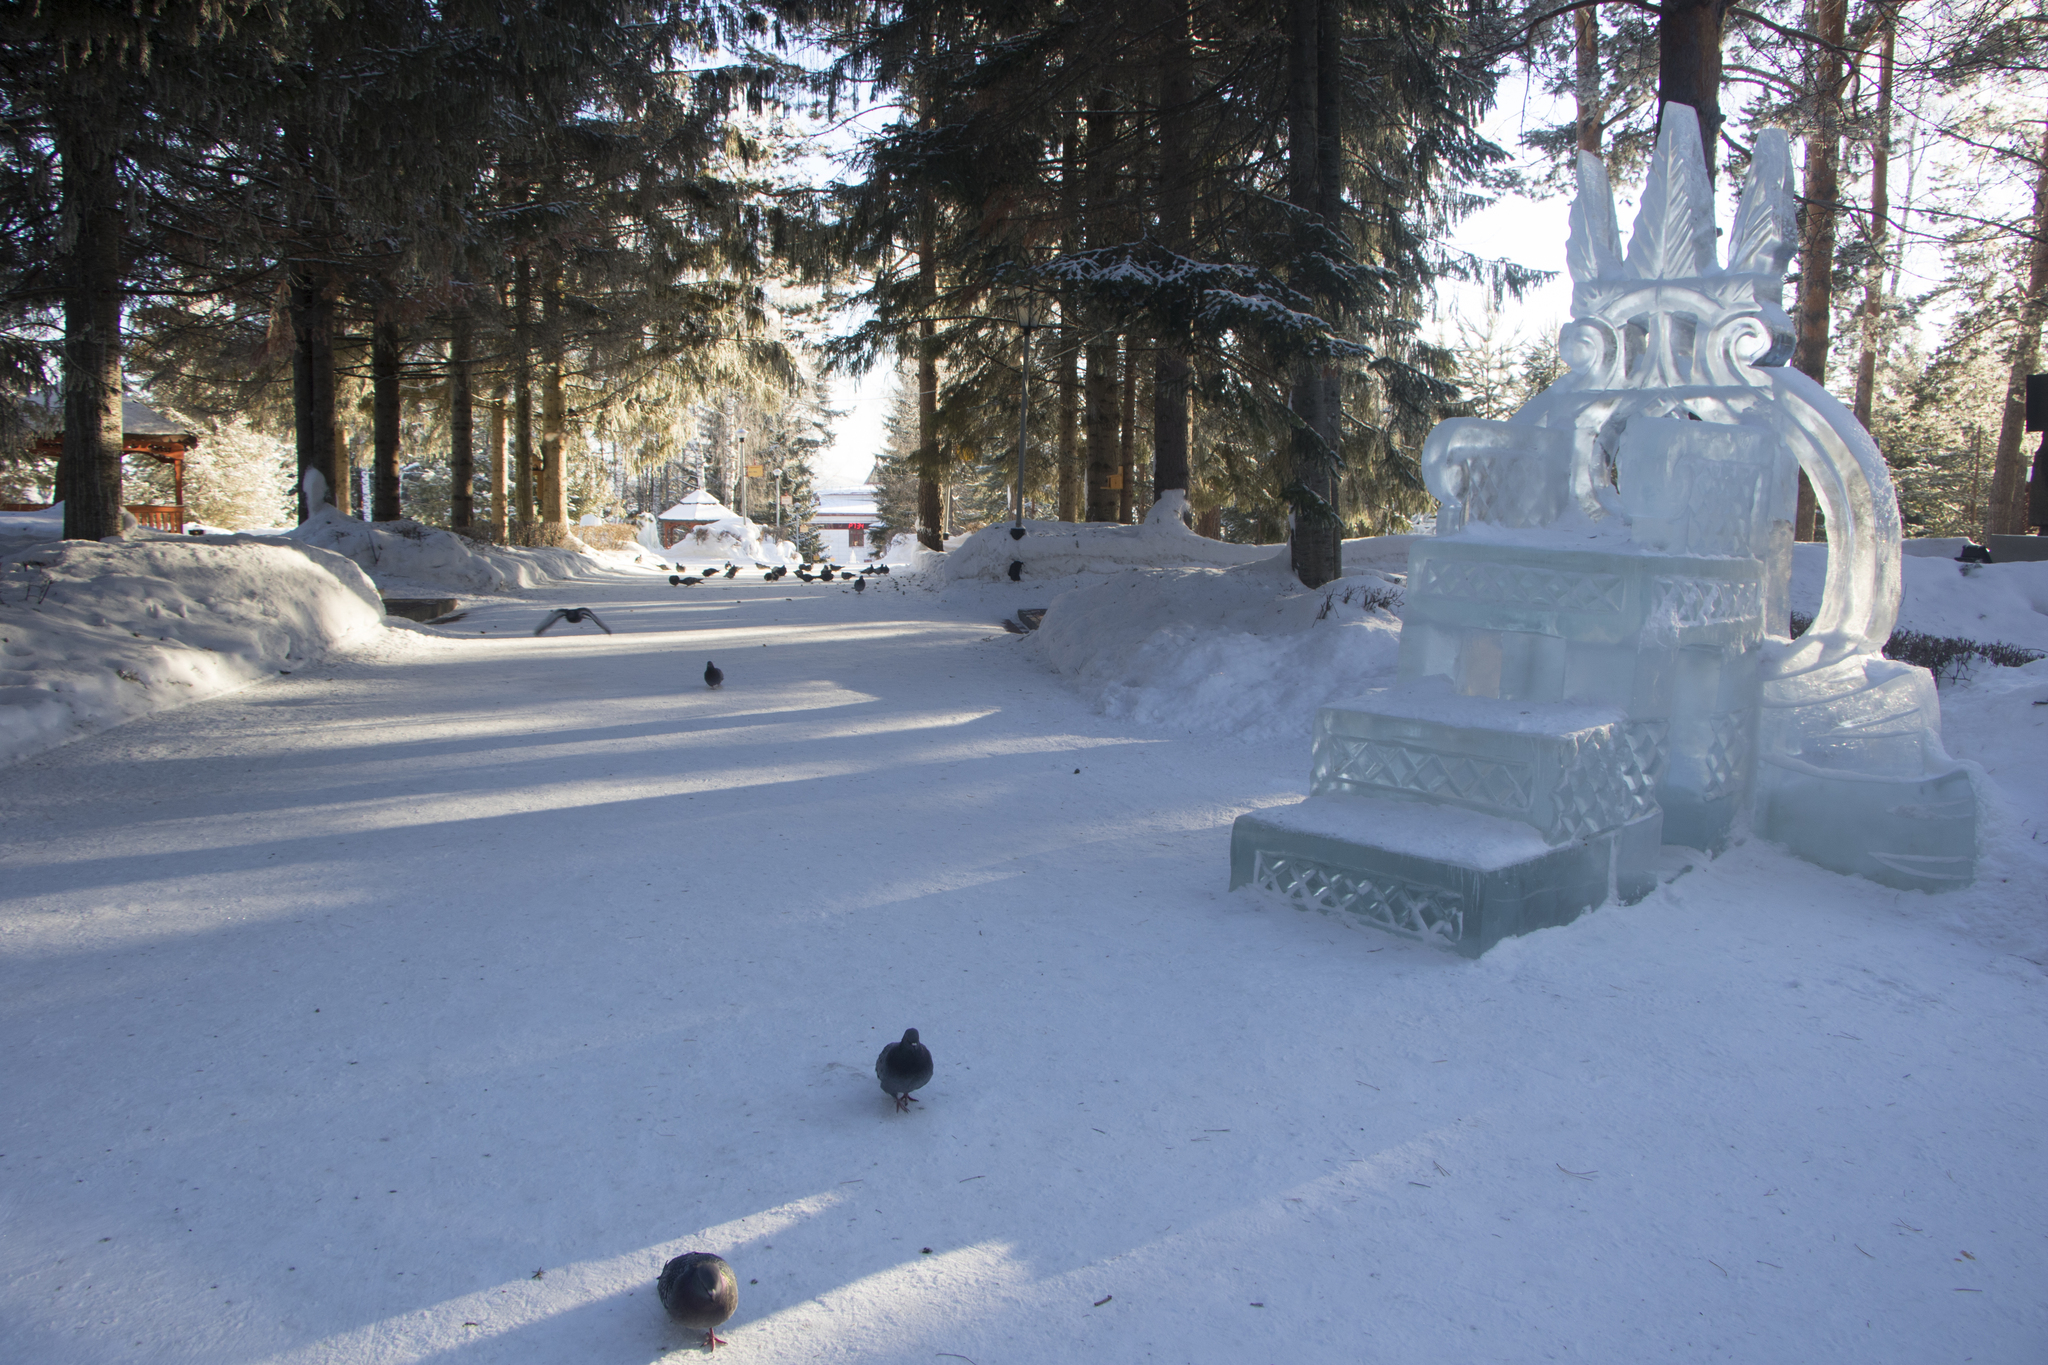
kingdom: Animalia
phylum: Chordata
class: Aves
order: Columbiformes
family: Columbidae
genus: Columba
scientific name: Columba livia
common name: Rock pigeon
